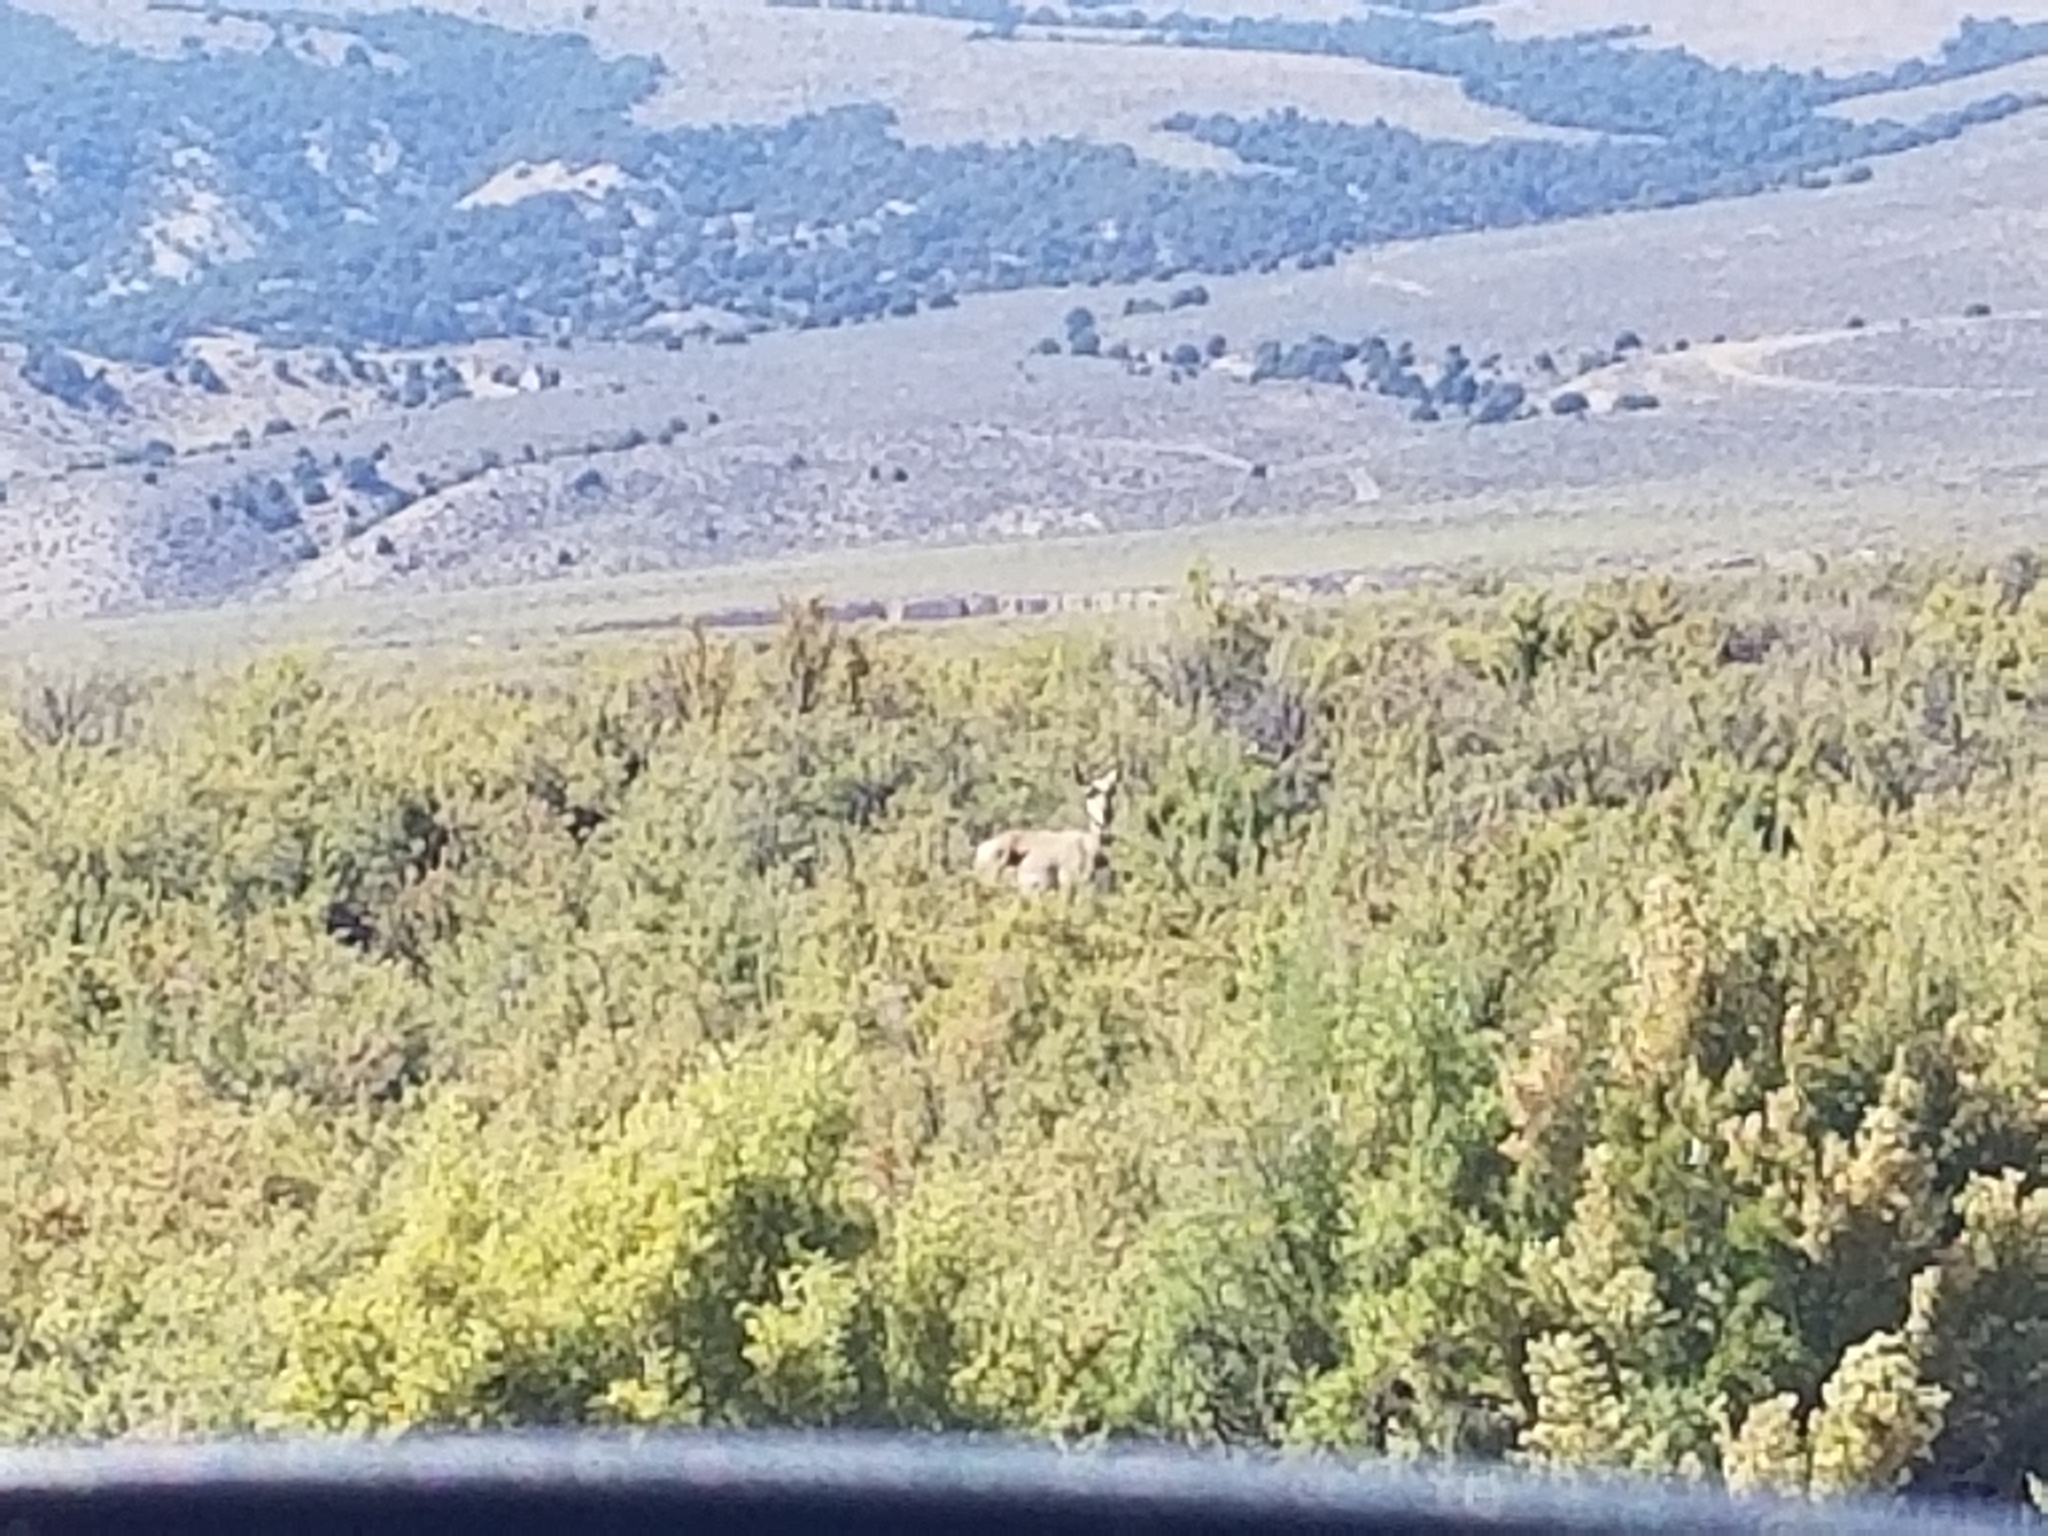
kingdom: Animalia
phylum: Chordata
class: Mammalia
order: Artiodactyla
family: Antilocapridae
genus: Antilocapra
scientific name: Antilocapra americana
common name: Pronghorn
